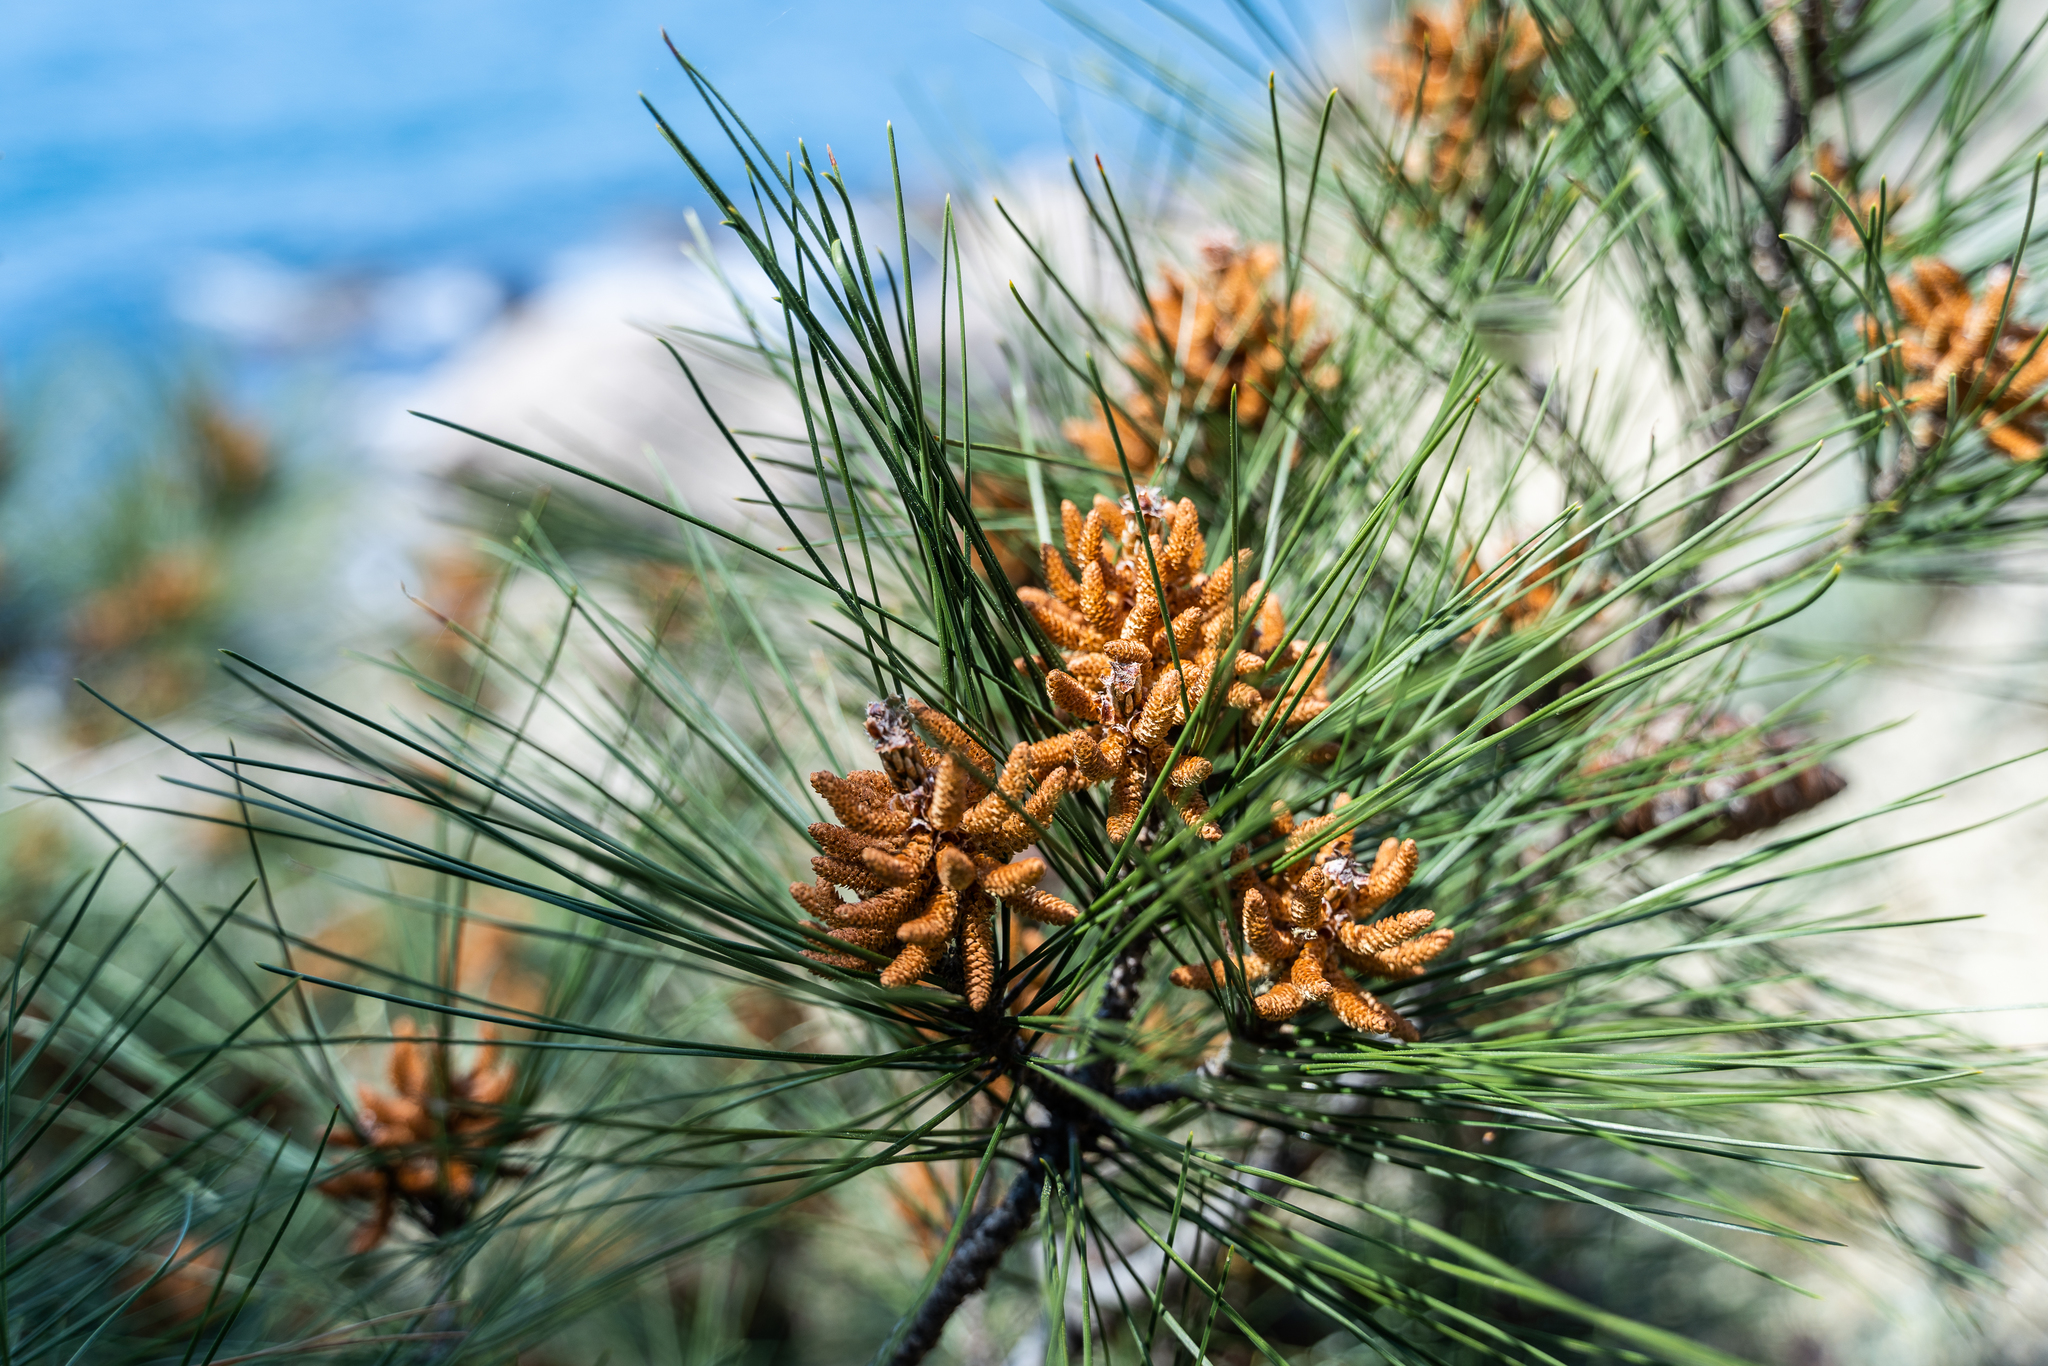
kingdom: Plantae
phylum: Tracheophyta
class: Pinopsida
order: Pinales
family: Pinaceae
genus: Pinus
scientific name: Pinus brutia
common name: Turkish pine
